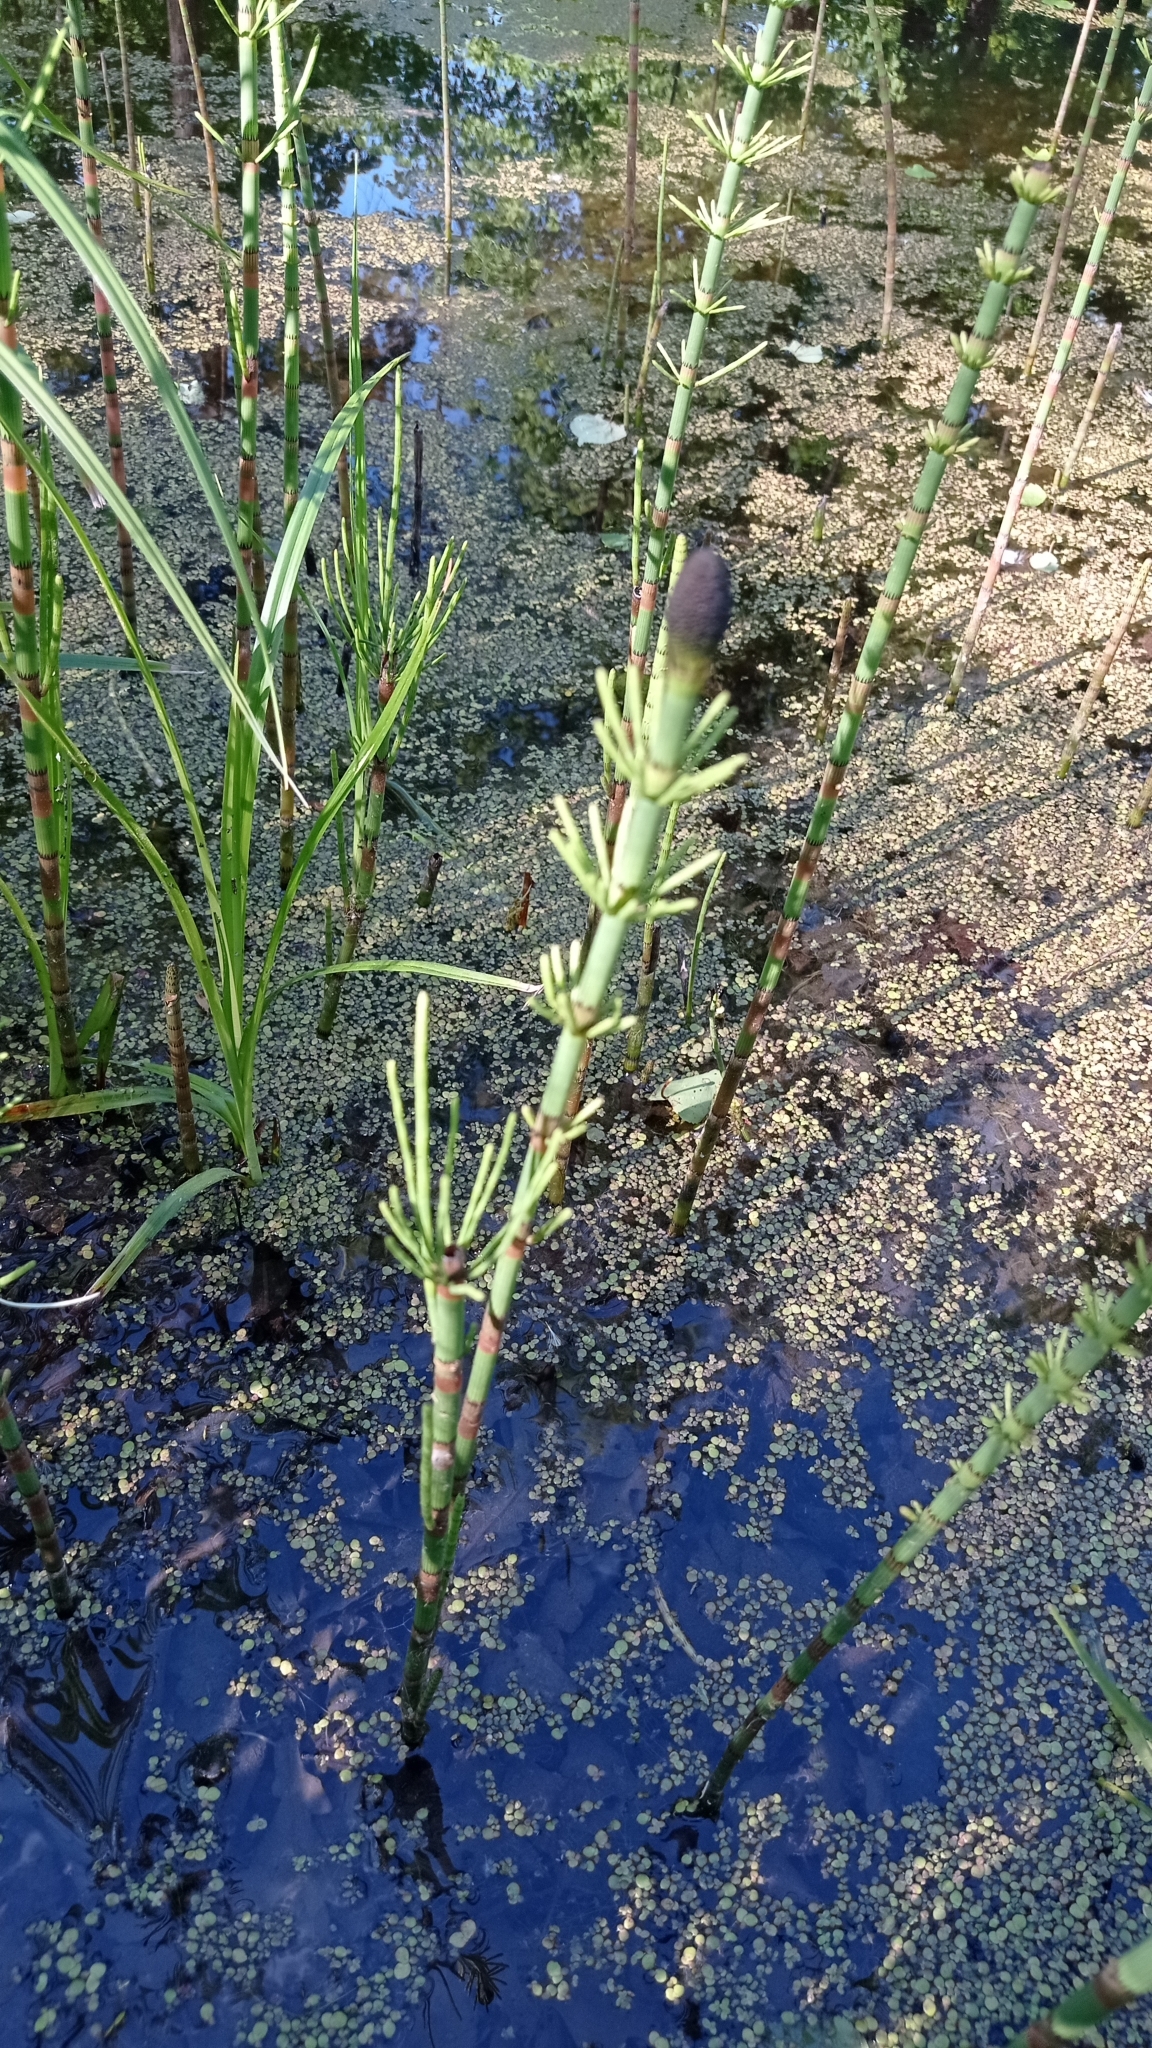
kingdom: Plantae
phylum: Tracheophyta
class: Polypodiopsida
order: Equisetales
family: Equisetaceae
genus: Equisetum
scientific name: Equisetum fluviatile
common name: Water horsetail
